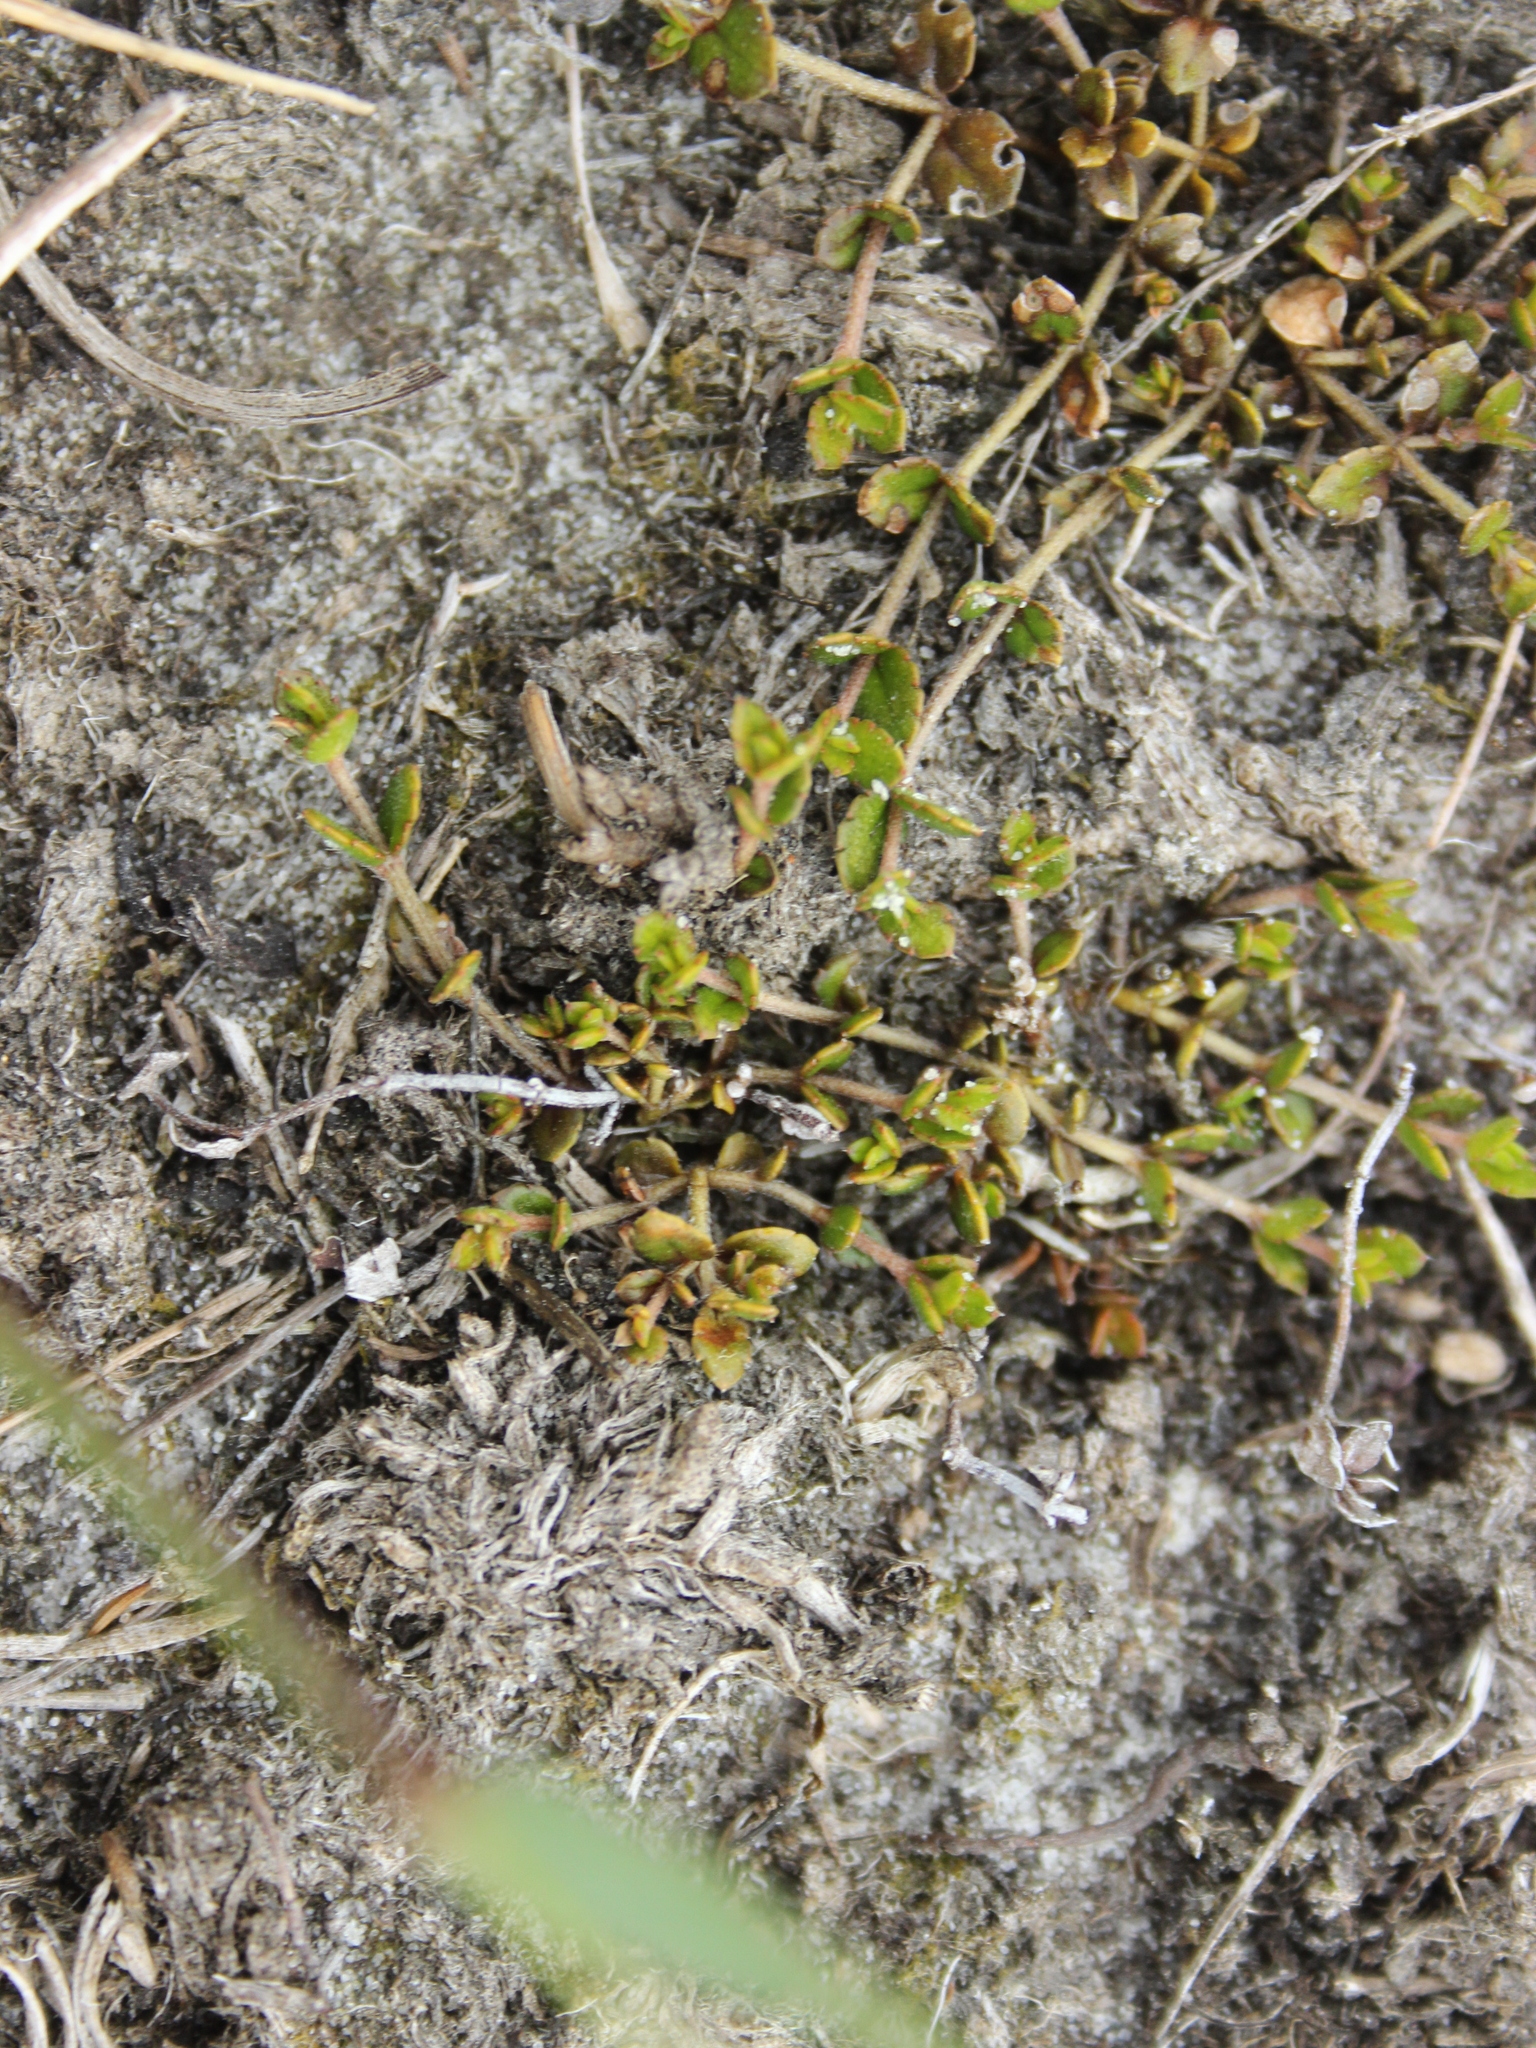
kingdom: Plantae
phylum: Tracheophyta
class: Magnoliopsida
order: Saxifragales
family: Haloragaceae
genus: Gonocarpus
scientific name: Gonocarpus micranthus
